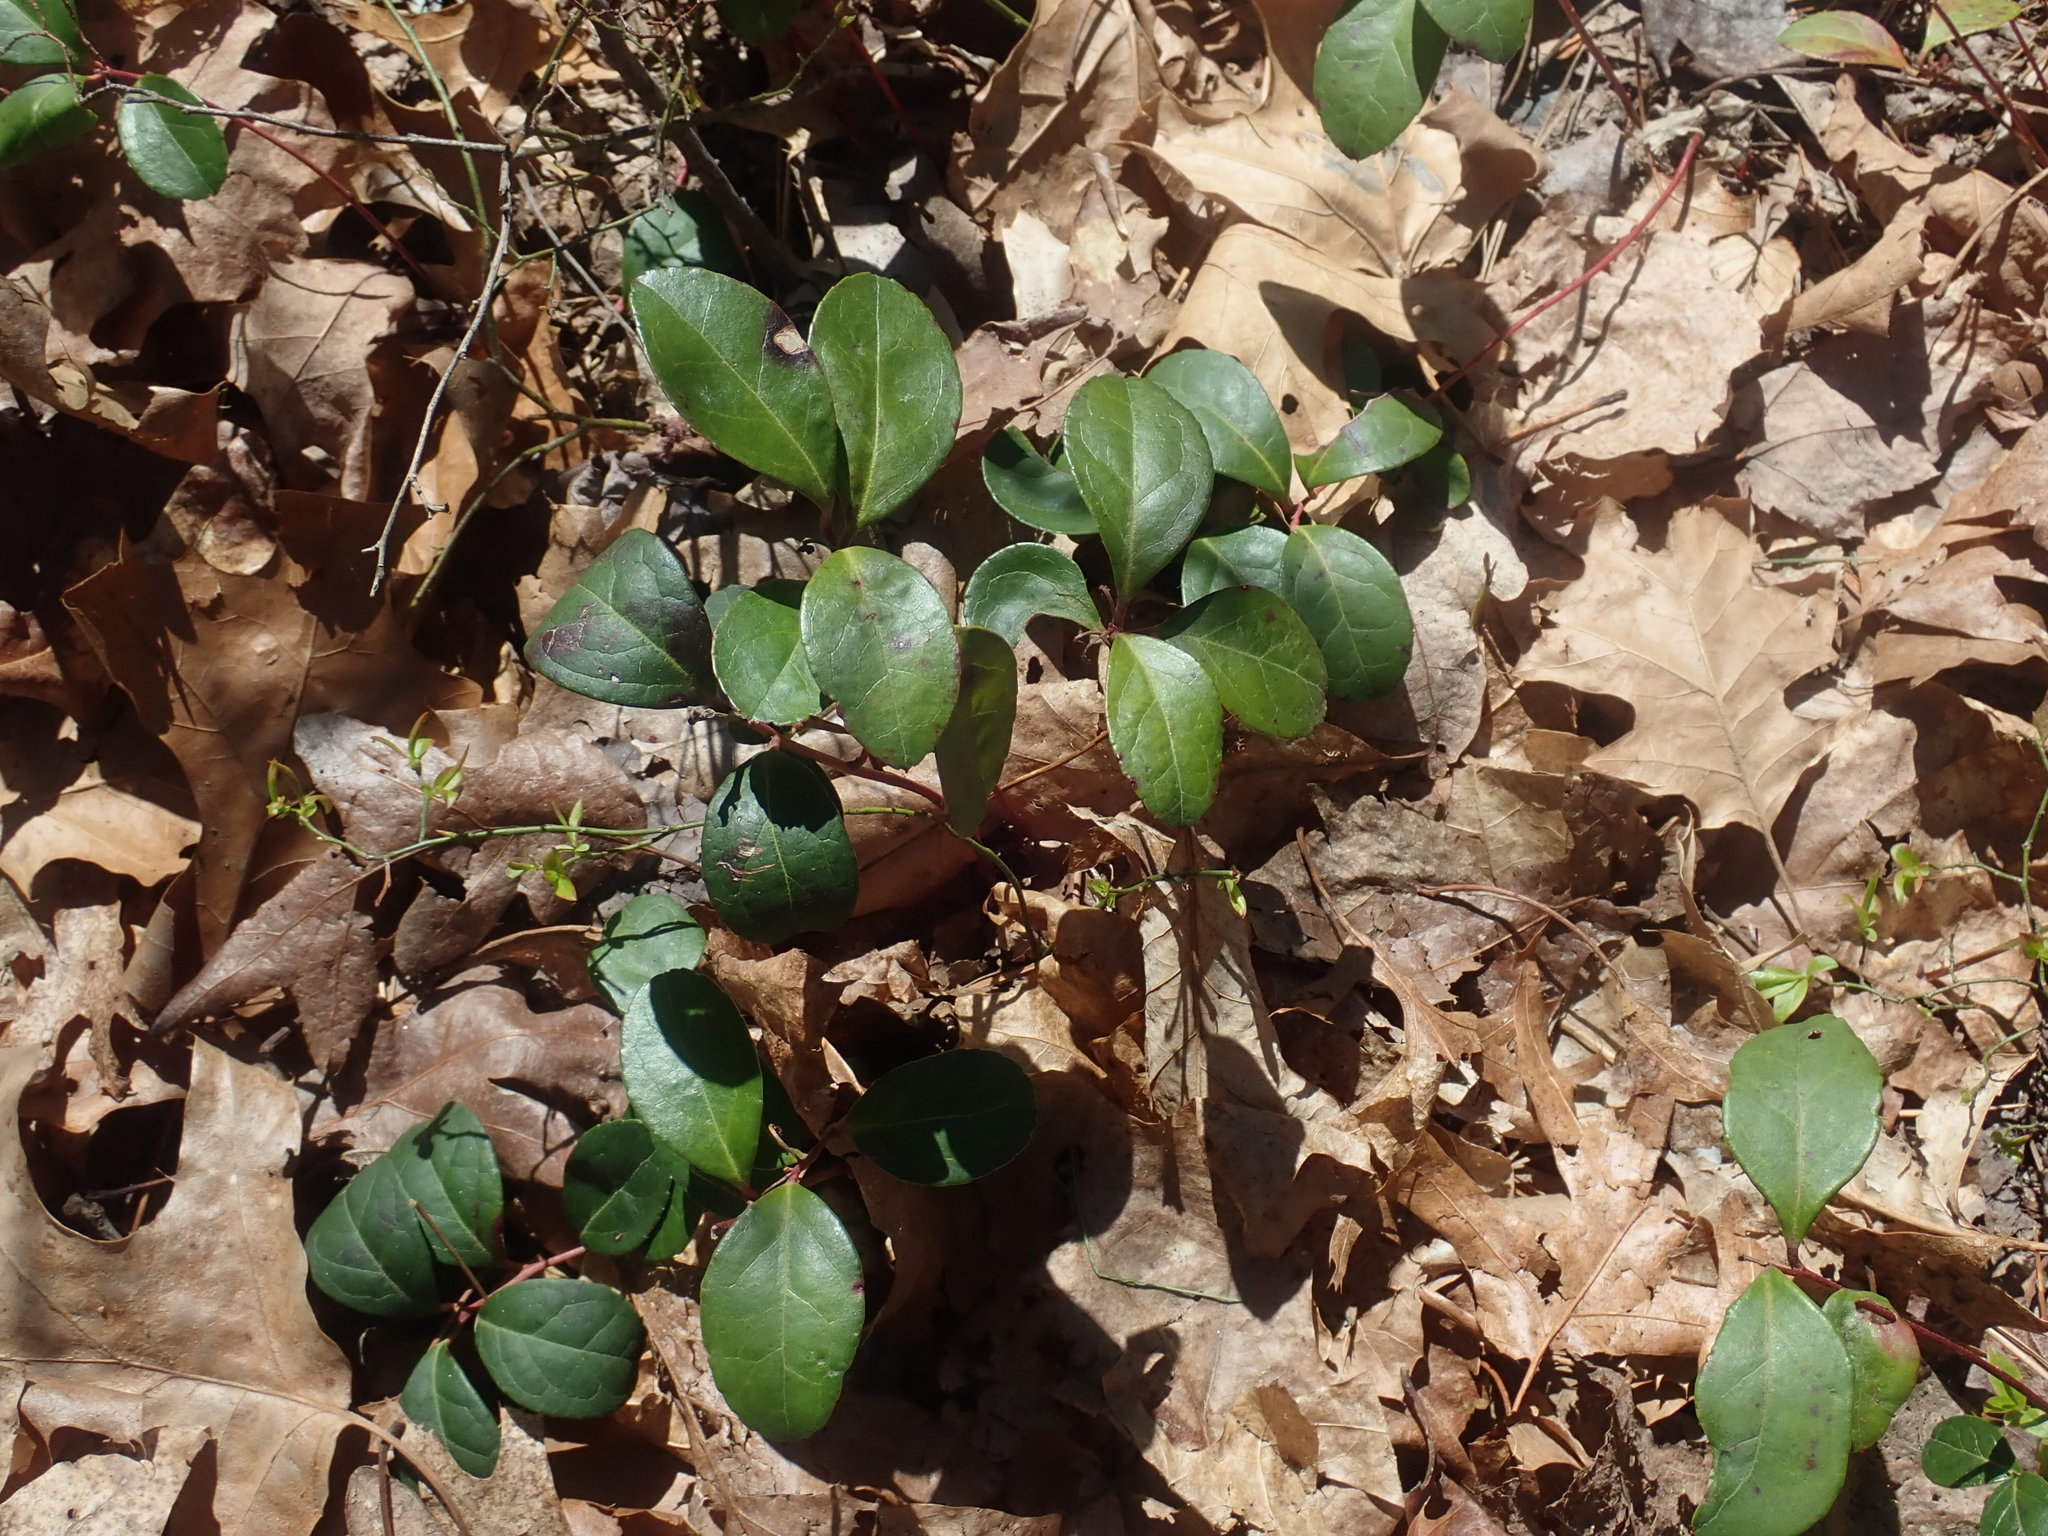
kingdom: Plantae
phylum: Tracheophyta
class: Magnoliopsida
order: Ericales
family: Ericaceae
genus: Gaultheria
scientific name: Gaultheria procumbens
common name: Checkerberry
